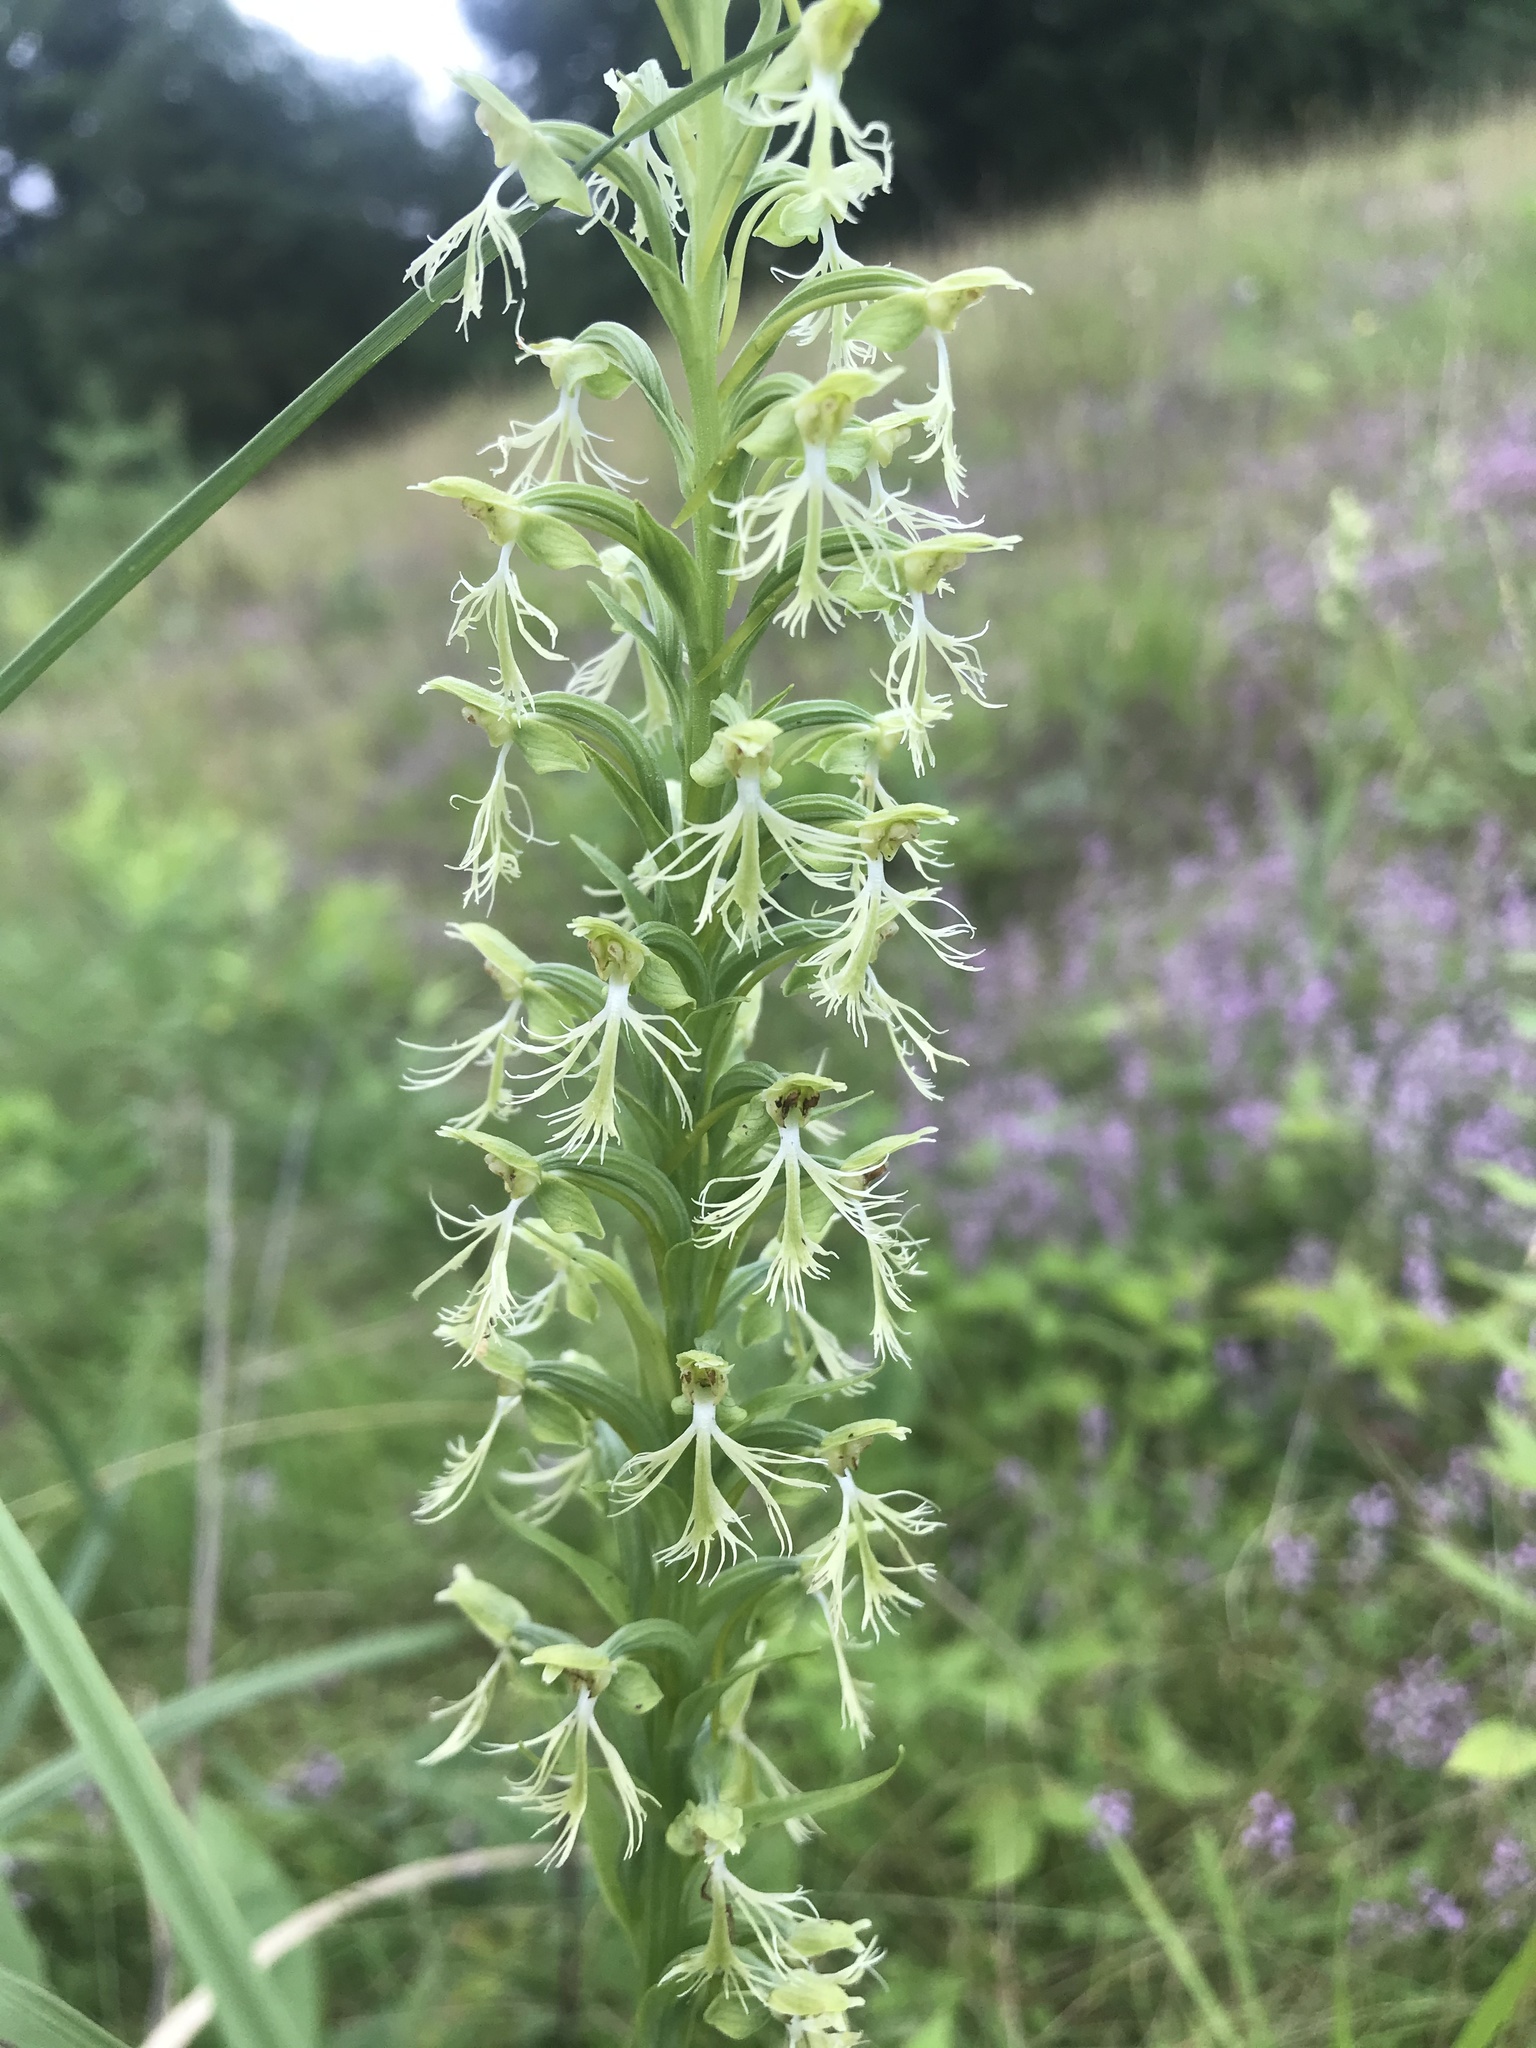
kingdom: Plantae
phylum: Tracheophyta
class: Liliopsida
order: Asparagales
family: Orchidaceae
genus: Platanthera
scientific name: Platanthera lacera
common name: Green fringed orchid
